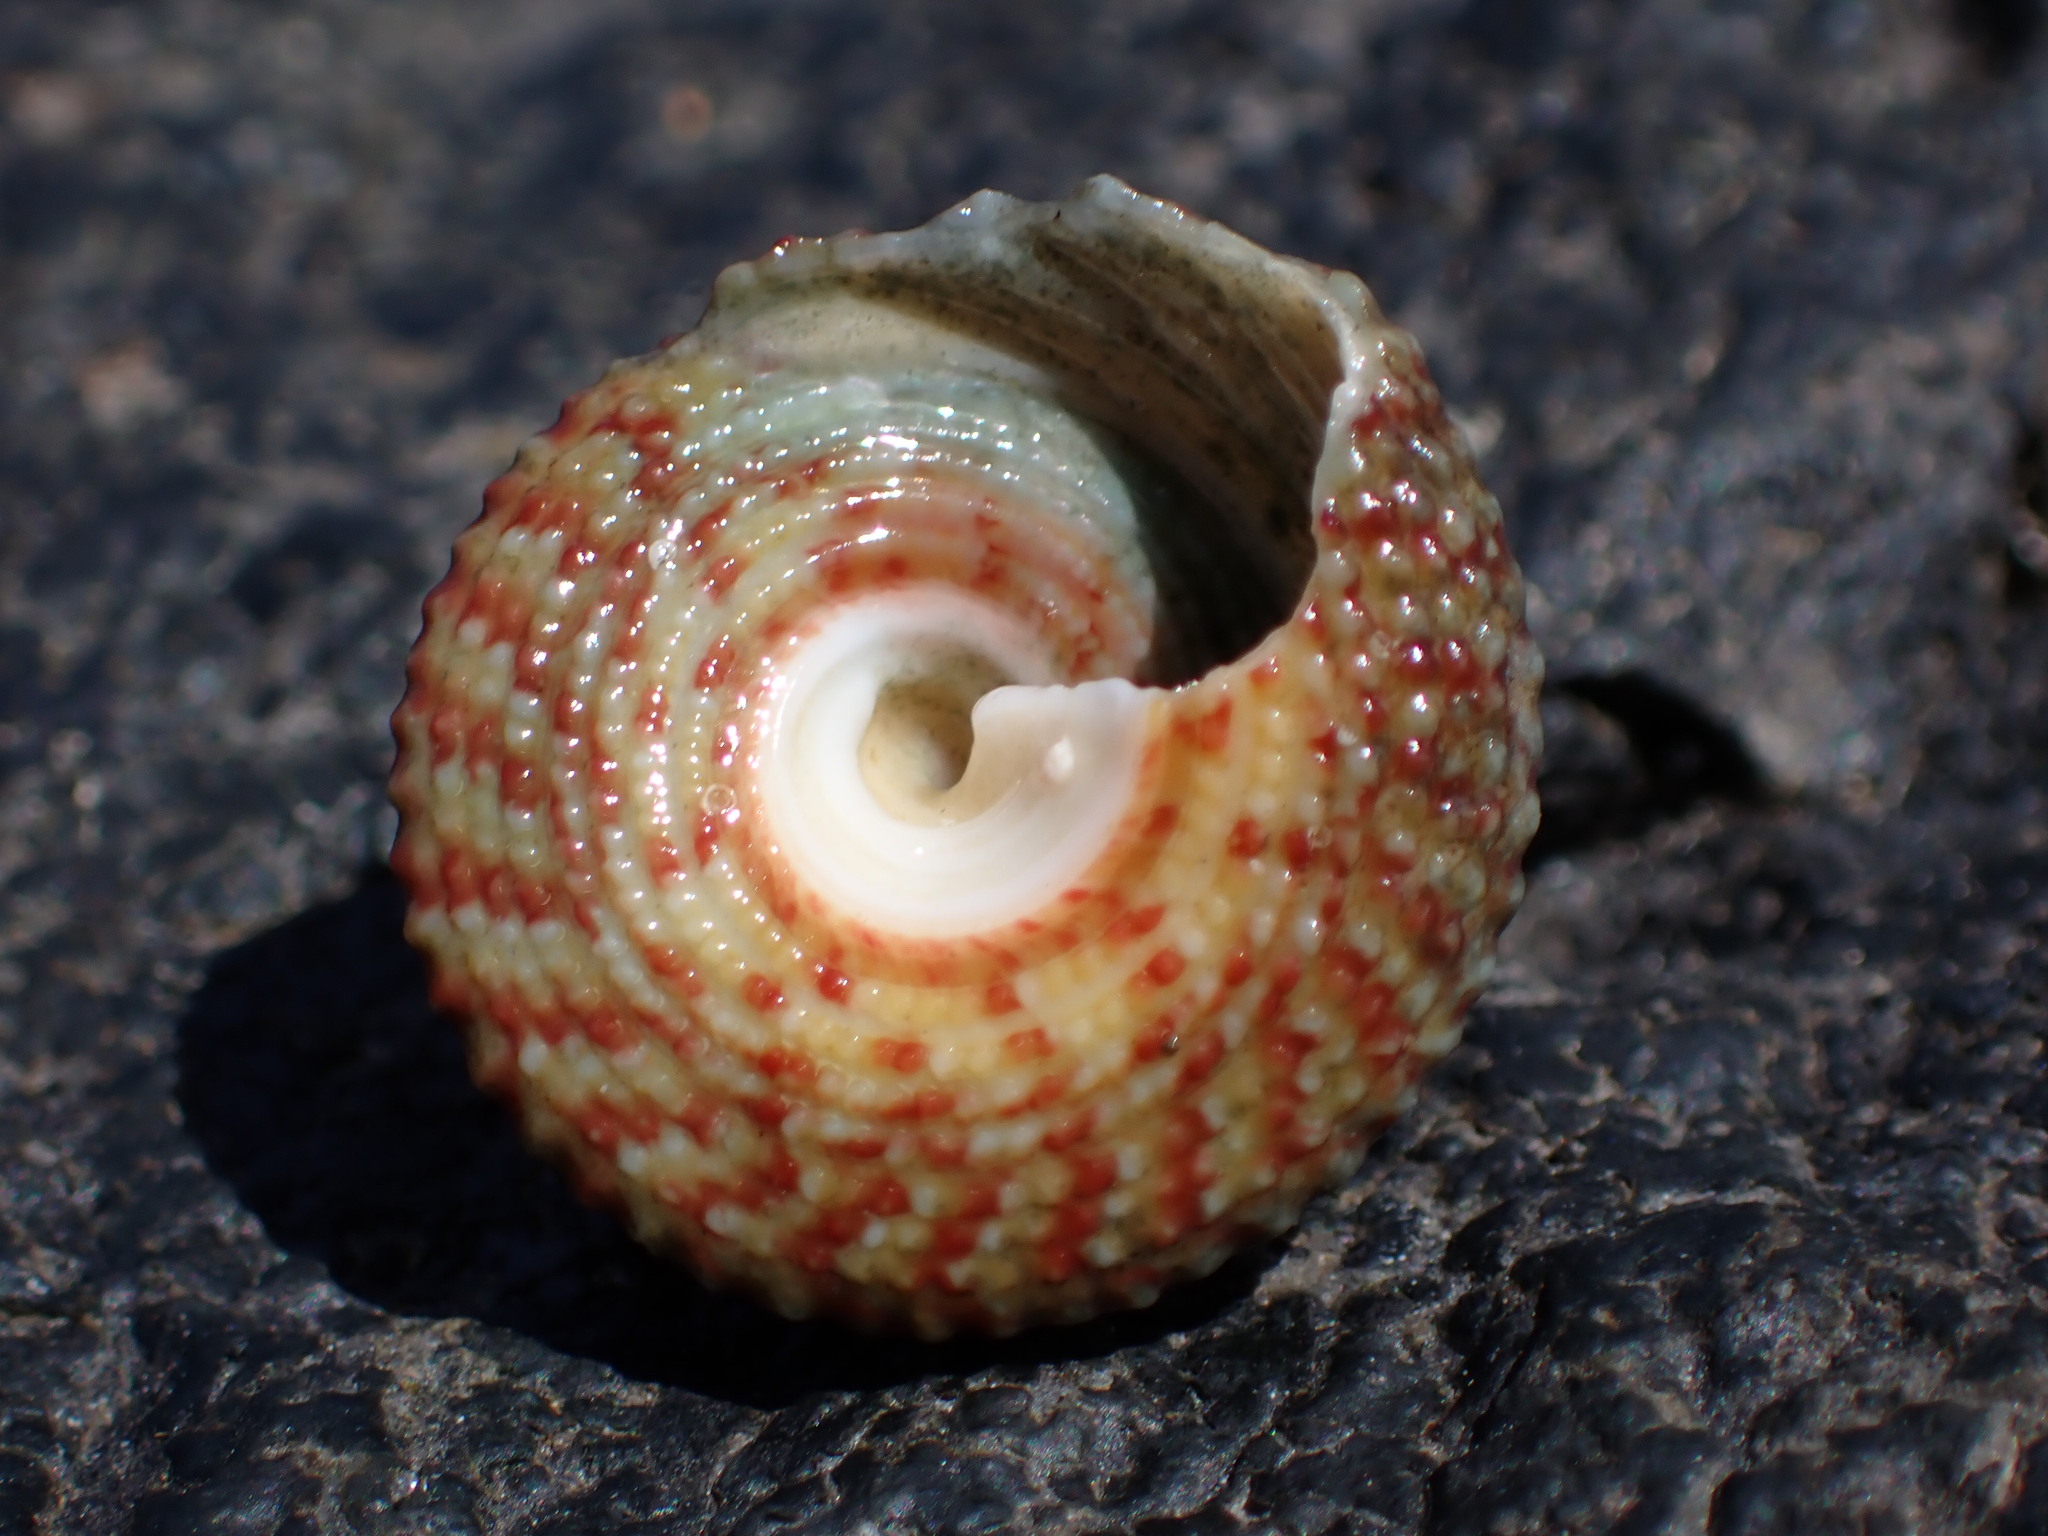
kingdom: Animalia
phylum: Mollusca
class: Gastropoda
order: Trochida
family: Trochidae
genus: Trochus
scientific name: Trochus intextus
